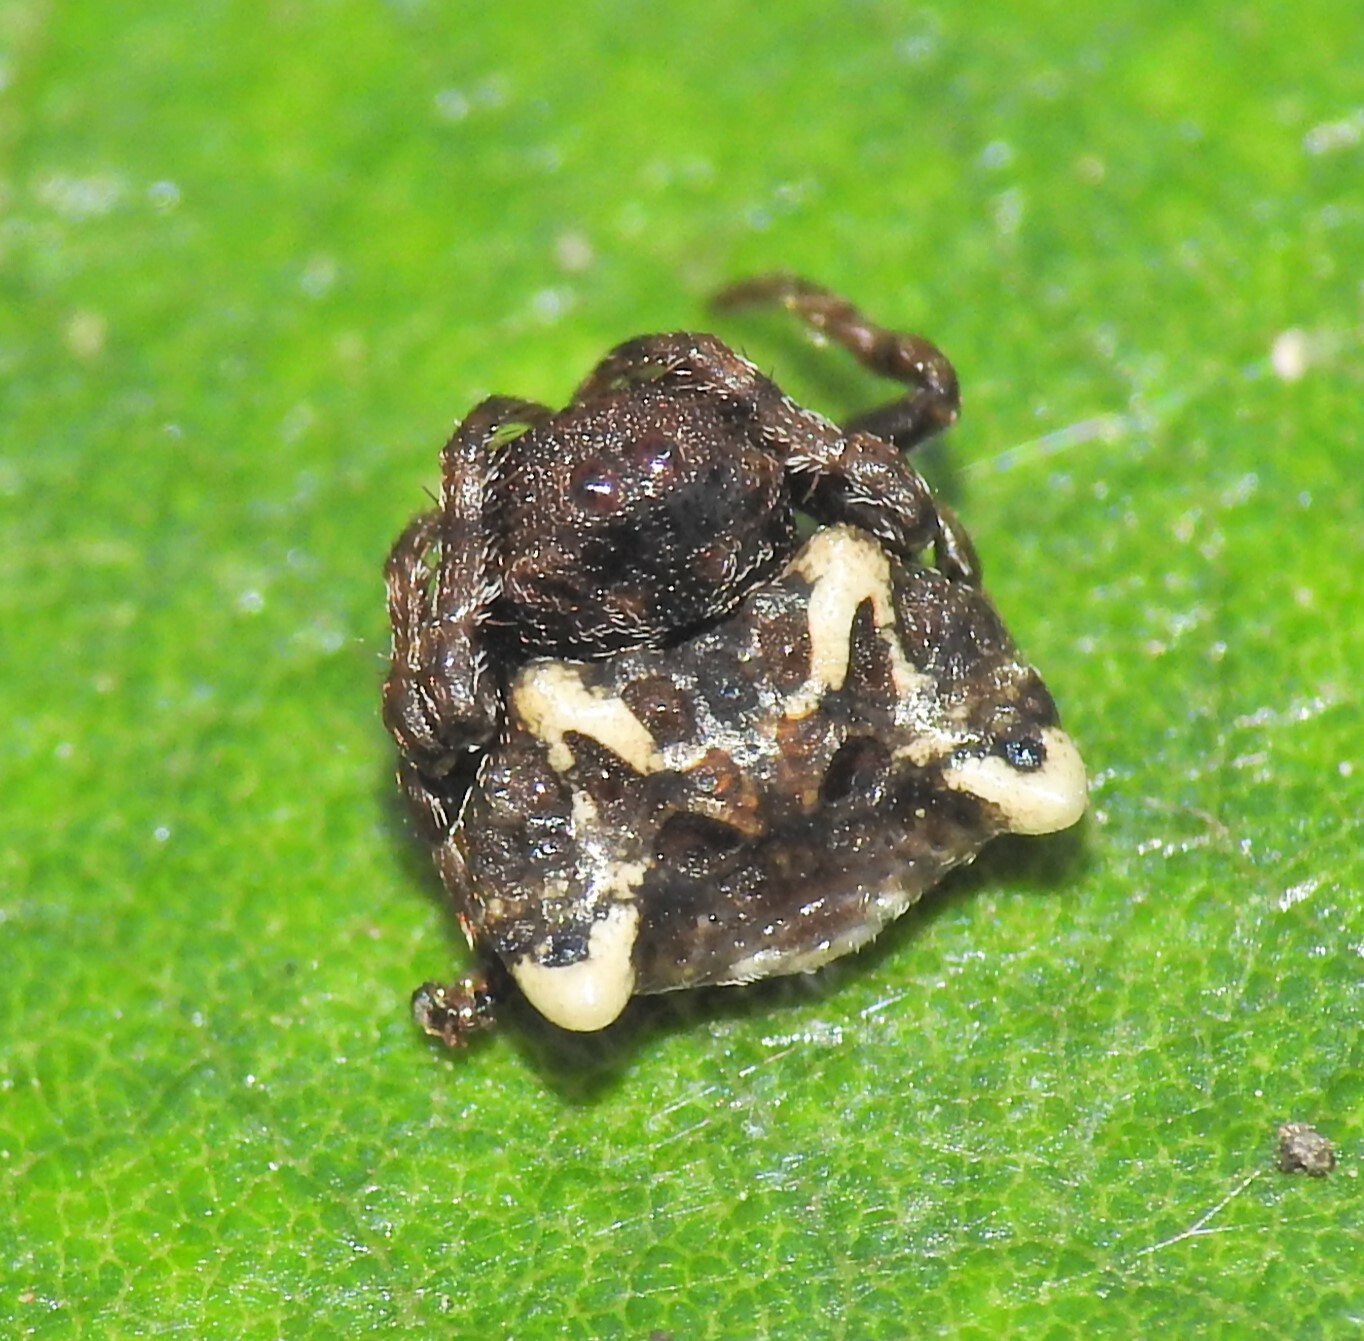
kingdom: Animalia
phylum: Arthropoda
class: Arachnida
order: Araneae
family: Arkyidae
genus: Arkys
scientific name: Arkys curtulus
